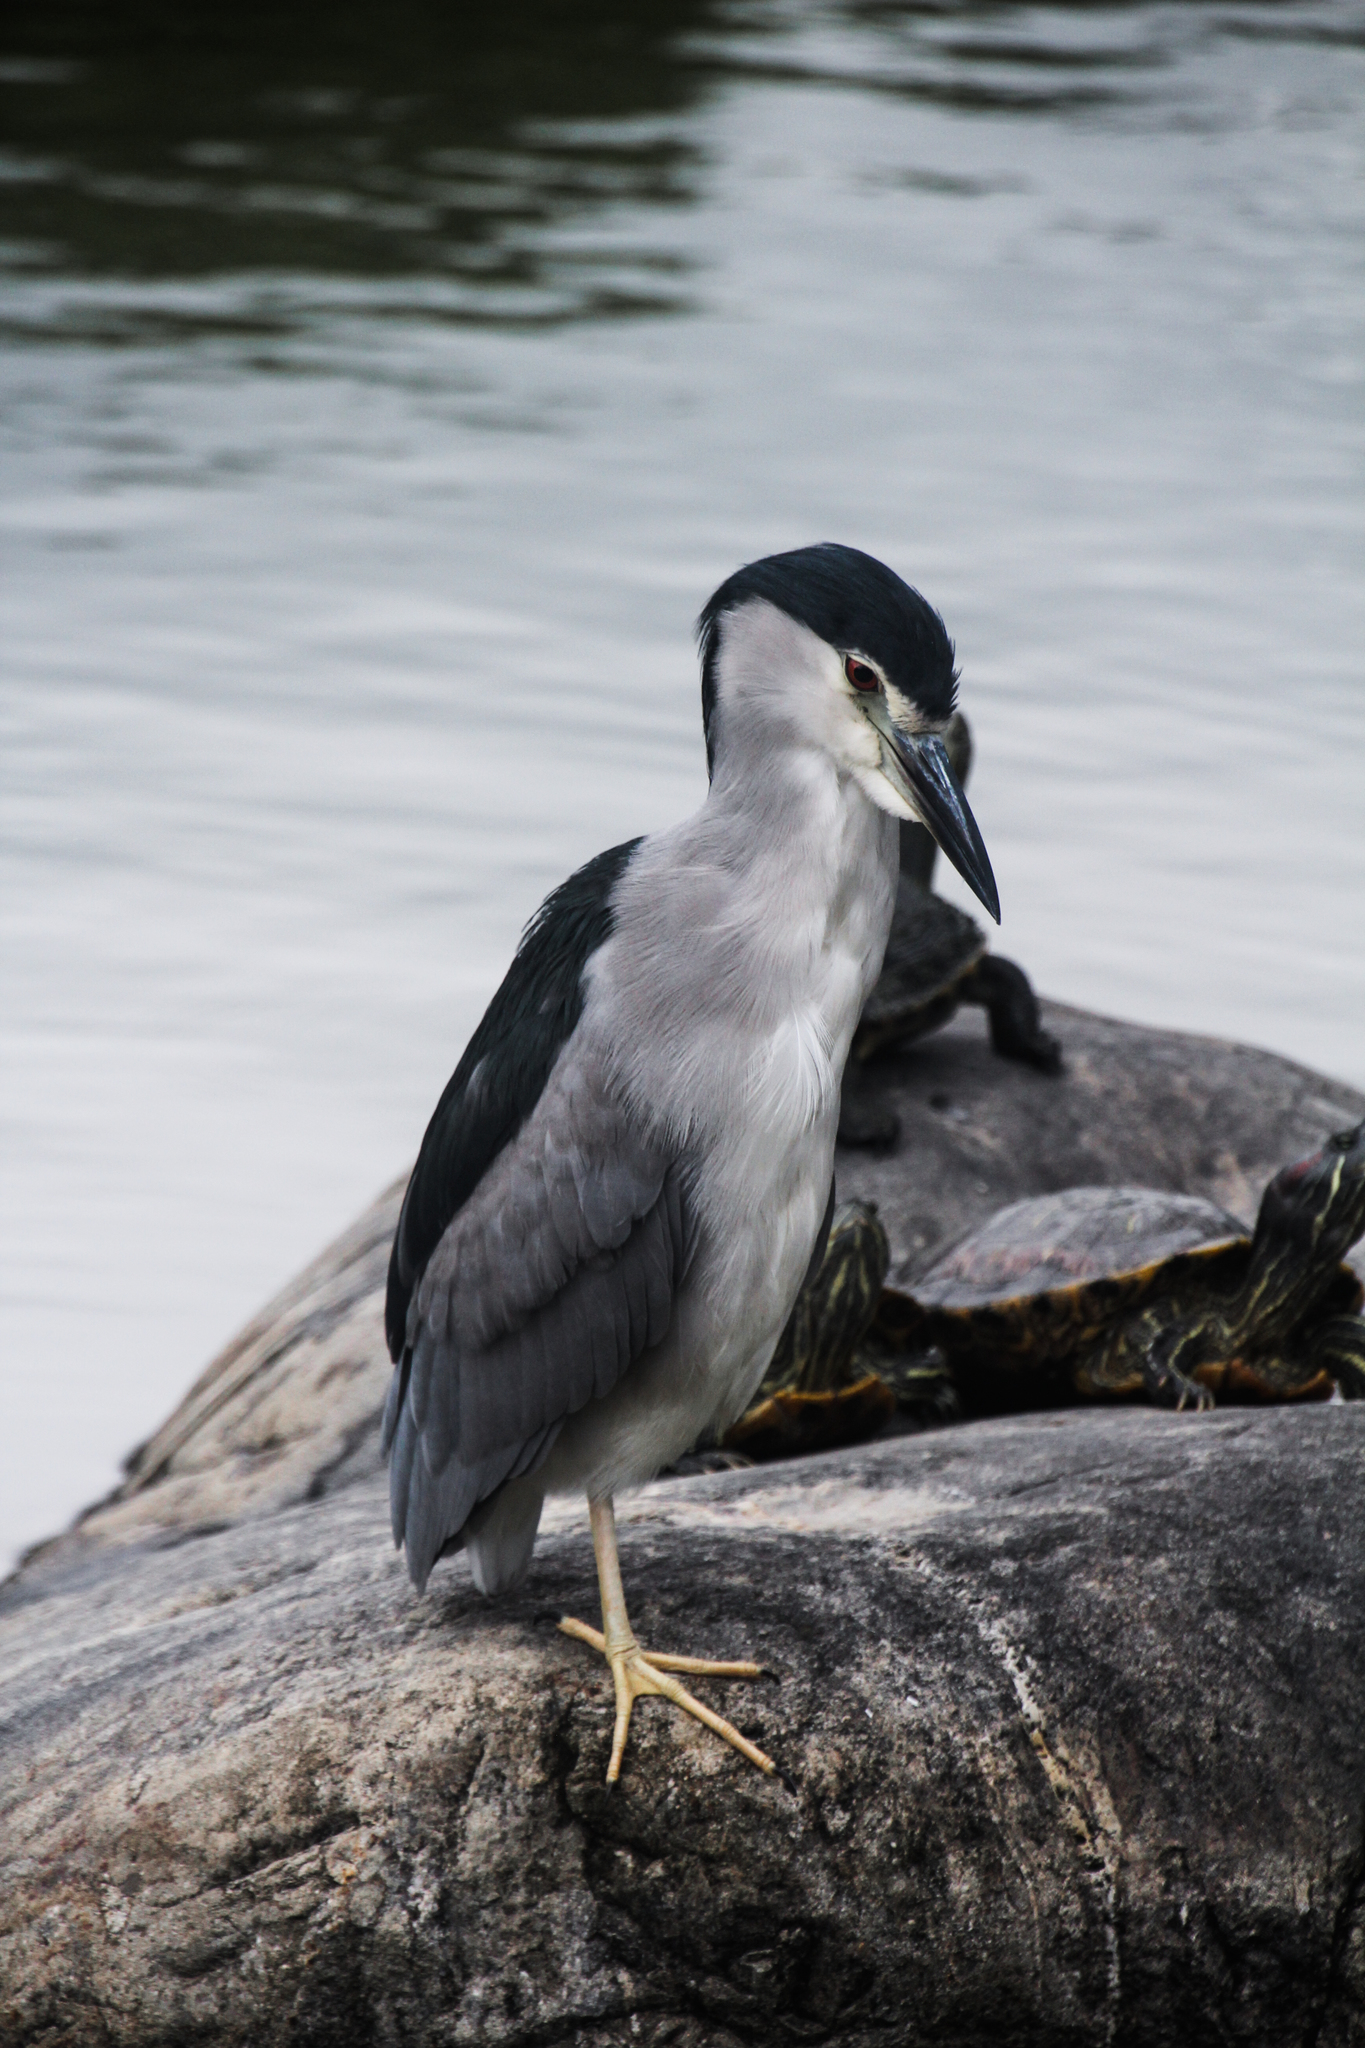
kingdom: Animalia
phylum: Chordata
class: Aves
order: Pelecaniformes
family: Ardeidae
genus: Nycticorax
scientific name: Nycticorax nycticorax
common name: Black-crowned night heron
